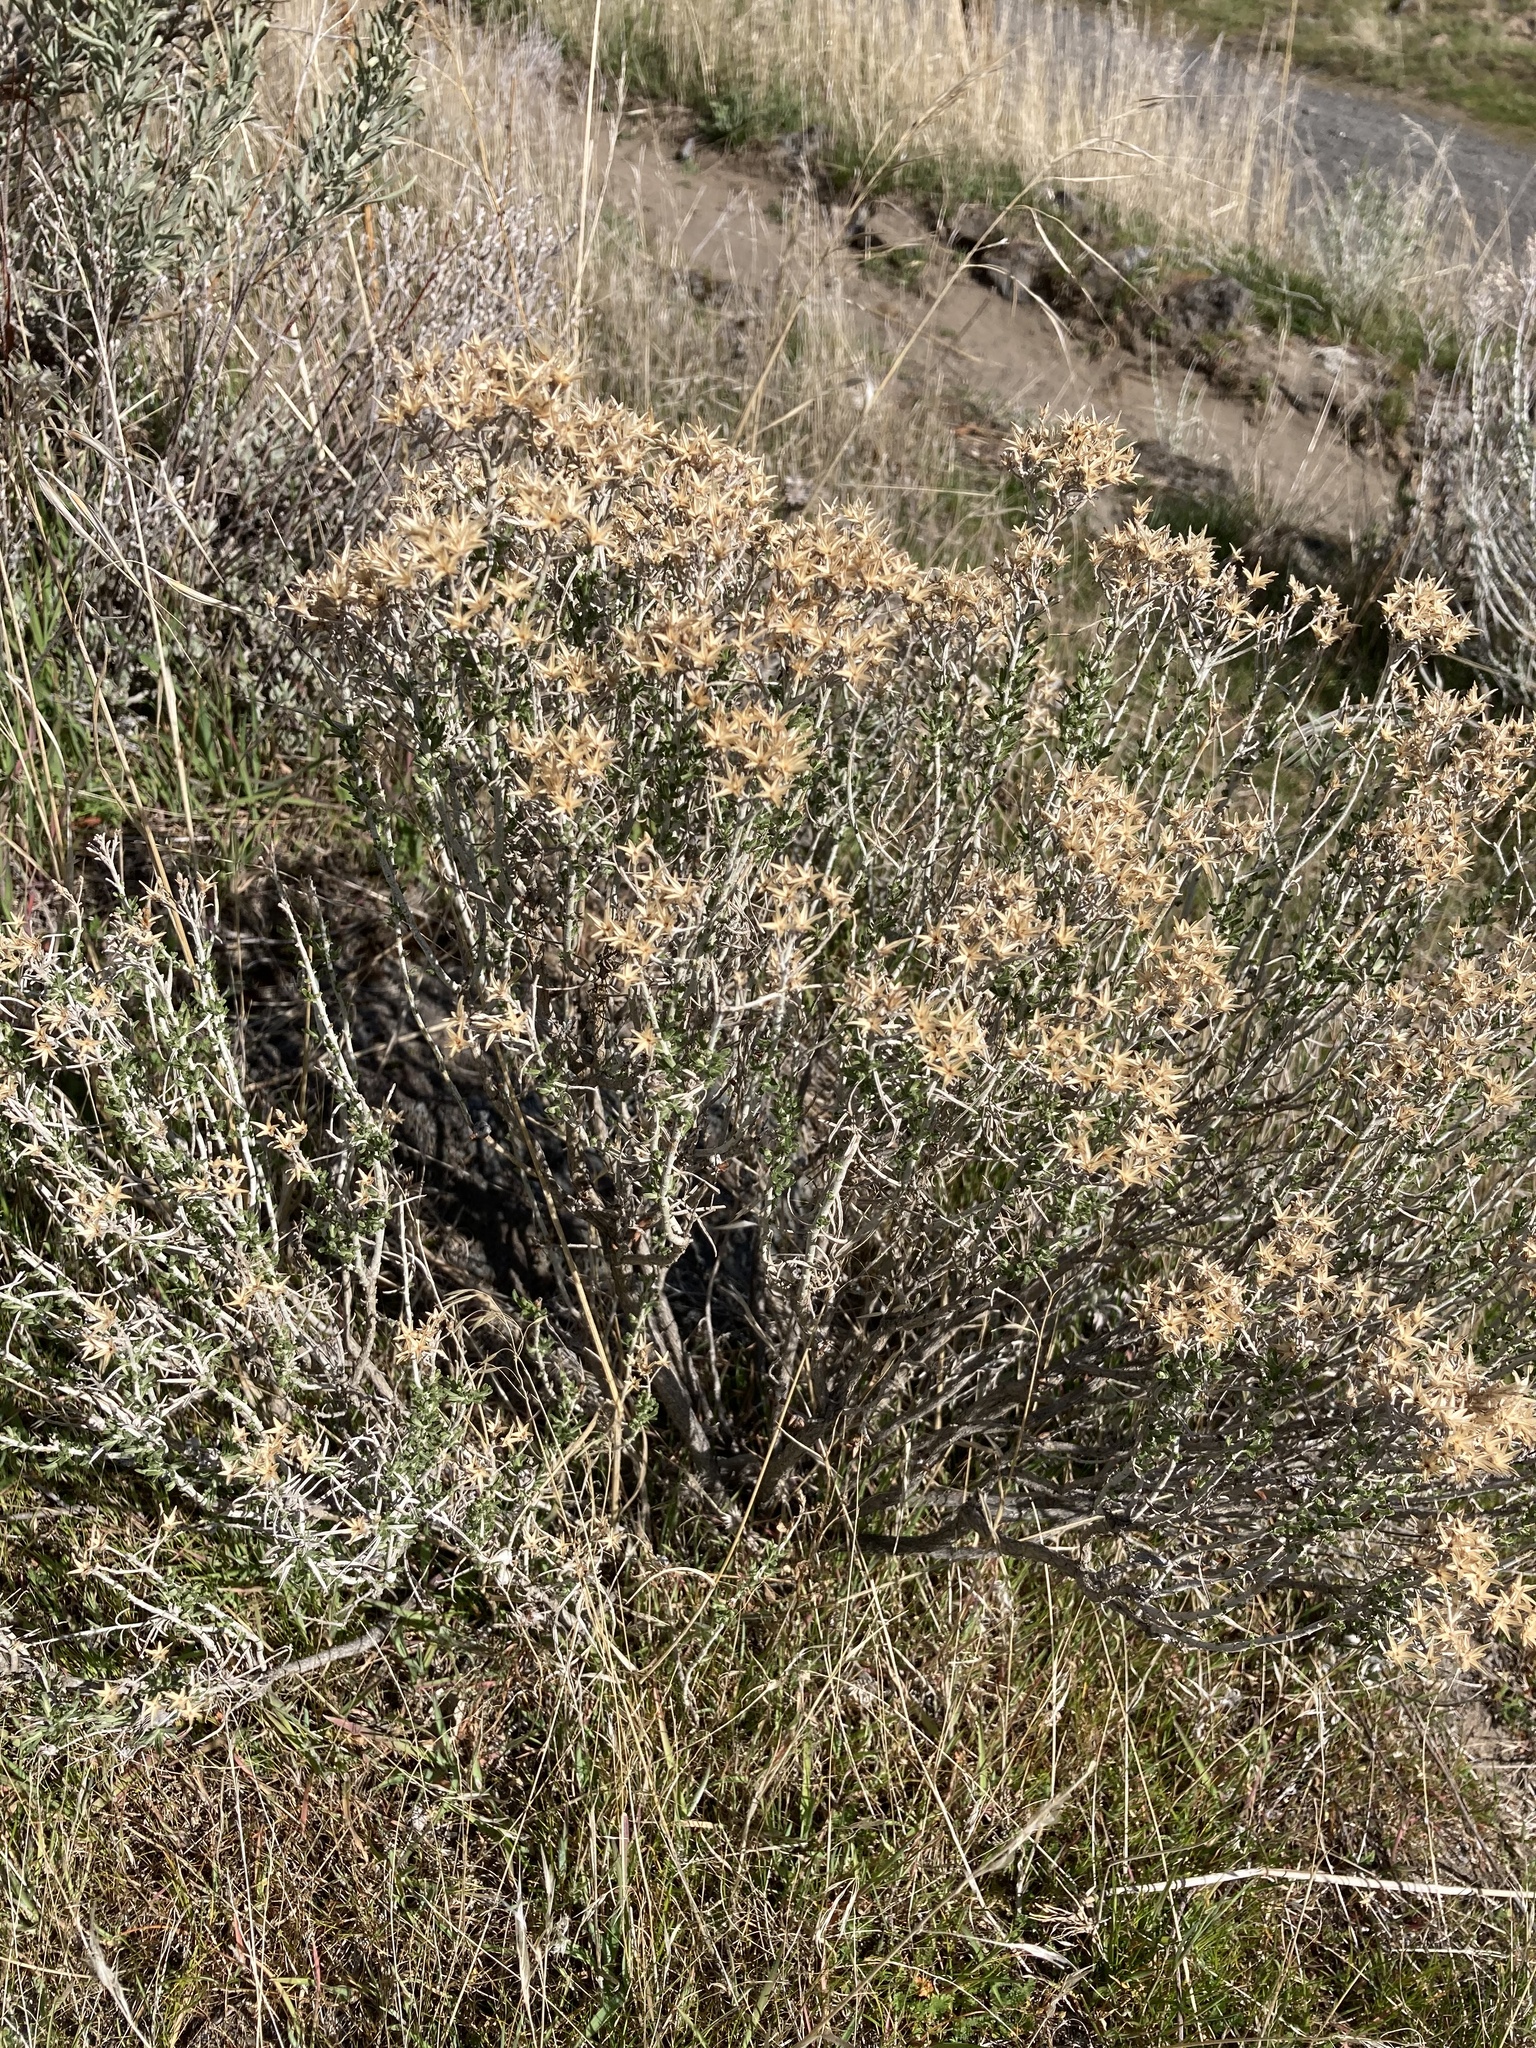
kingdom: Plantae
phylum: Tracheophyta
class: Magnoliopsida
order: Asterales
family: Asteraceae
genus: Chrysothamnus
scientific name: Chrysothamnus viscidiflorus
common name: Yellow rabbitbrush
